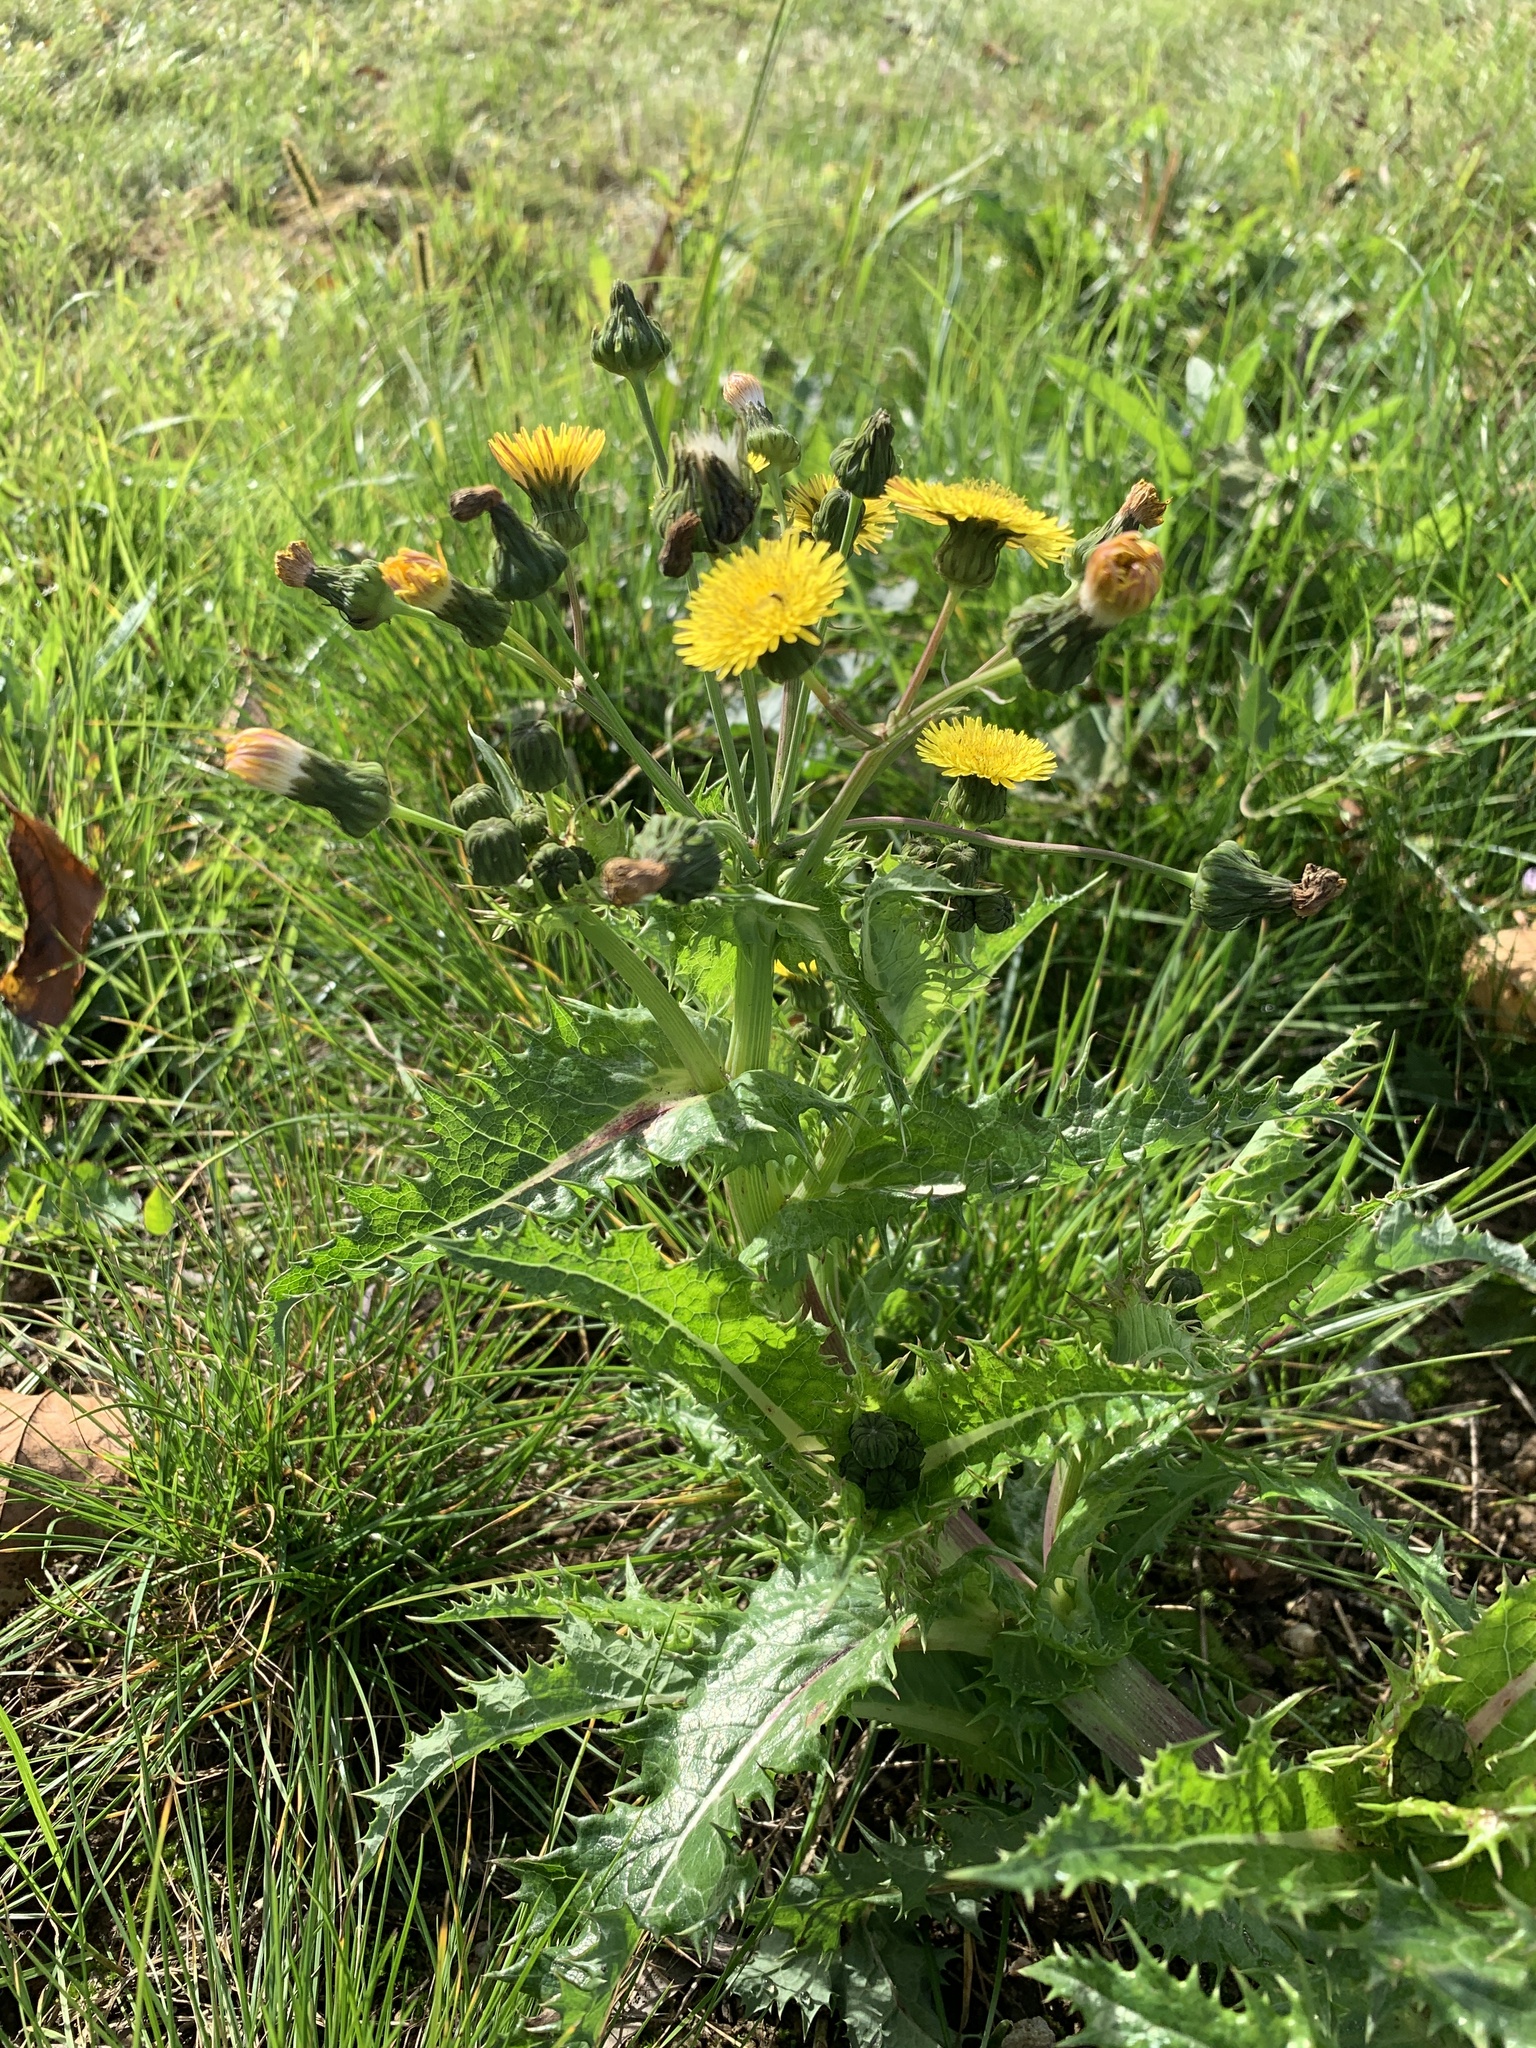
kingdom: Plantae
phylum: Tracheophyta
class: Magnoliopsida
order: Asterales
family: Asteraceae
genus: Sonchus
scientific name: Sonchus asper
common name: Prickly sow-thistle
